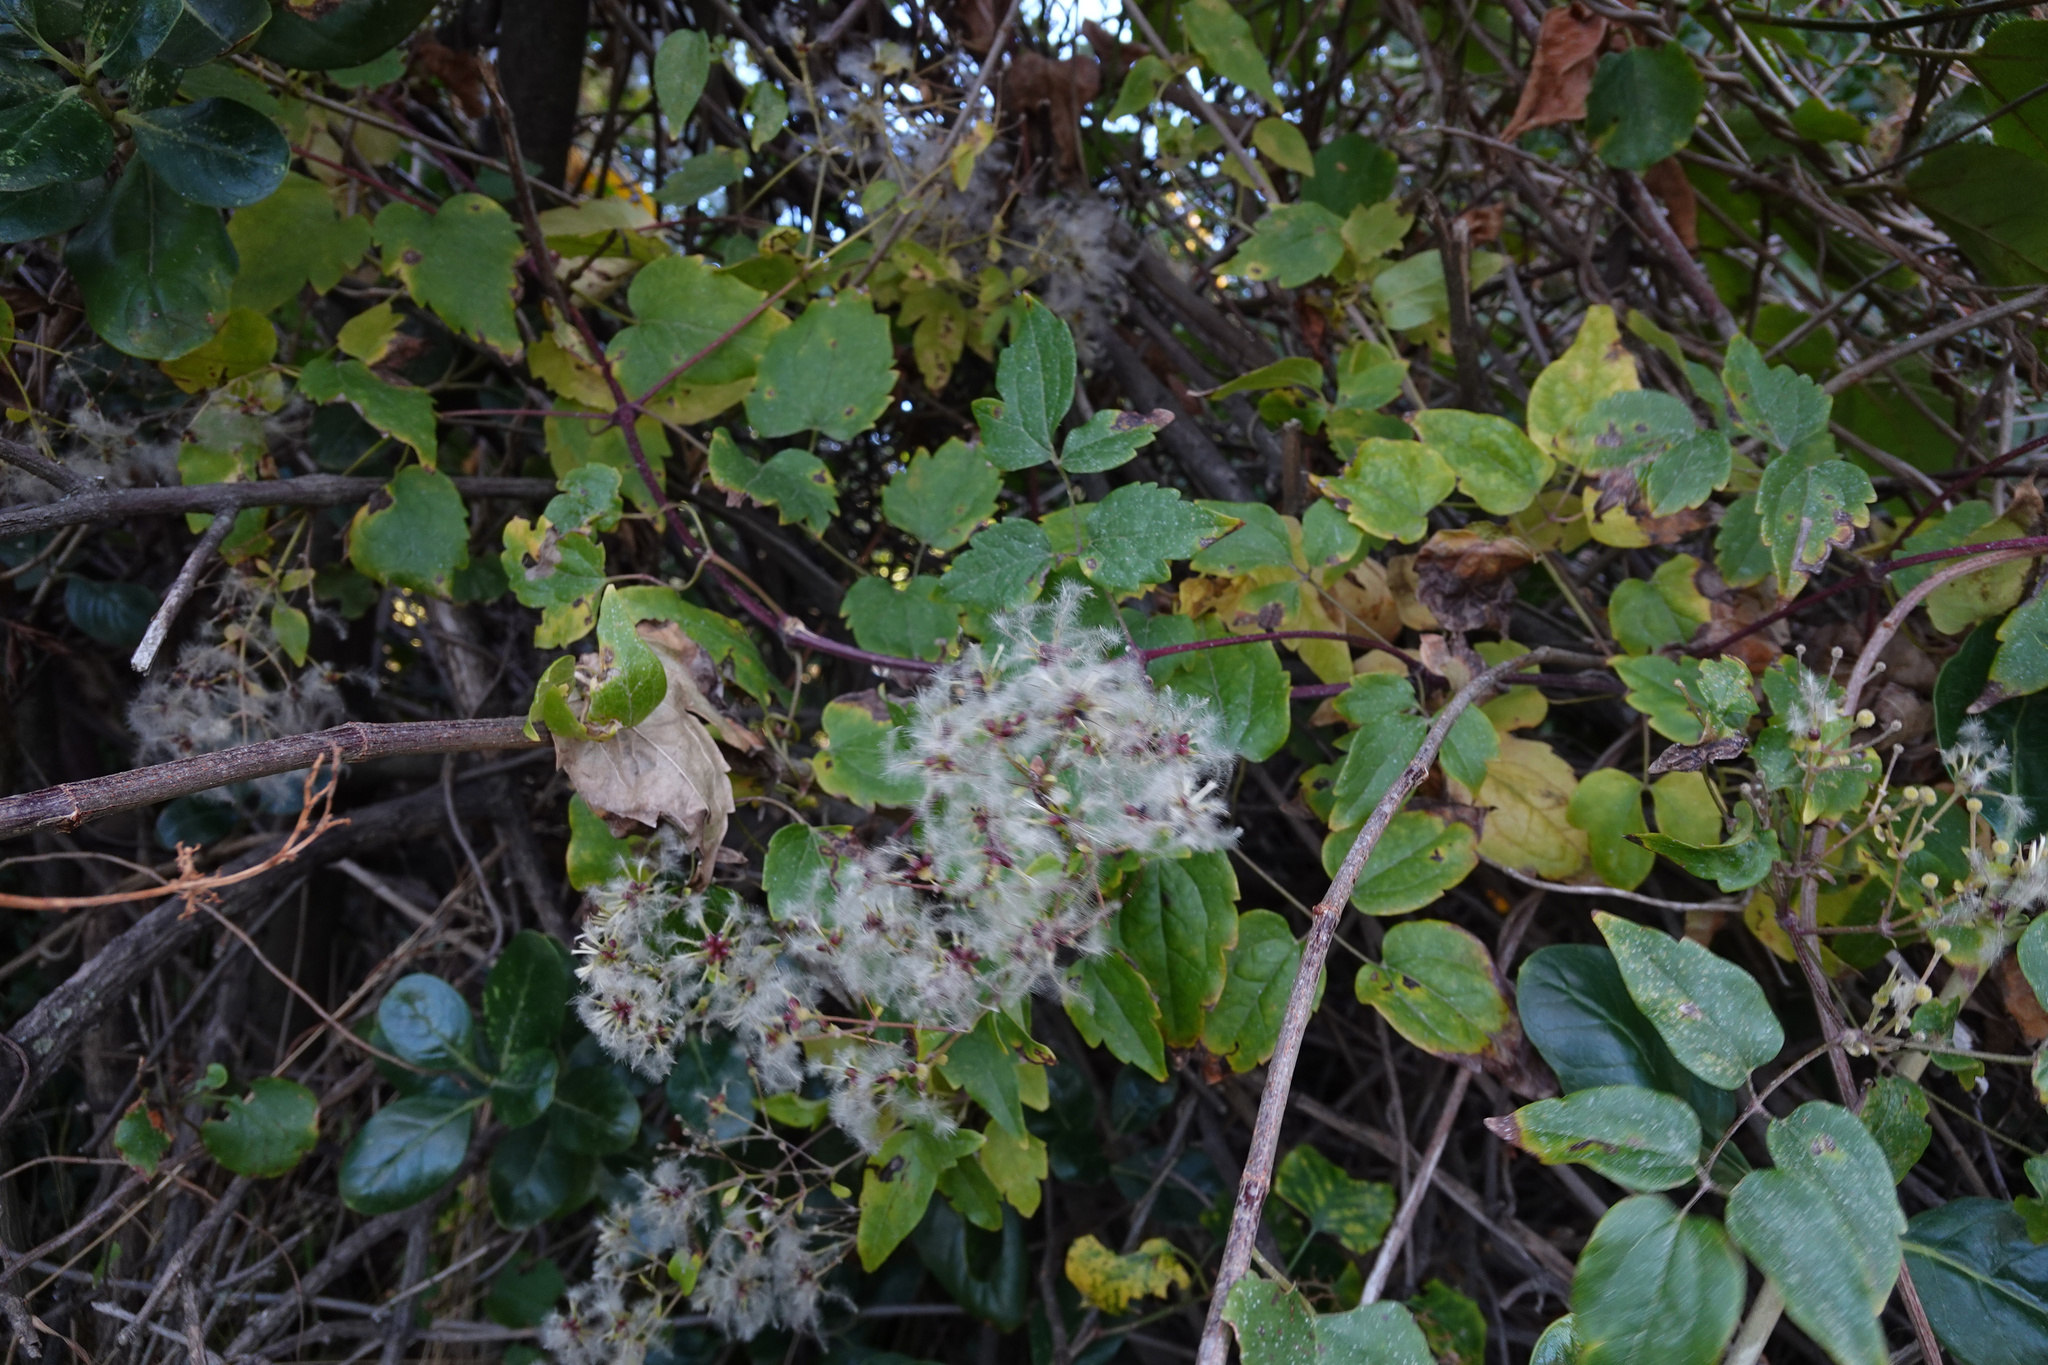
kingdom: Plantae
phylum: Tracheophyta
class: Magnoliopsida
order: Ranunculales
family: Ranunculaceae
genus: Clematis
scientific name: Clematis vitalba
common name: Evergreen clematis
